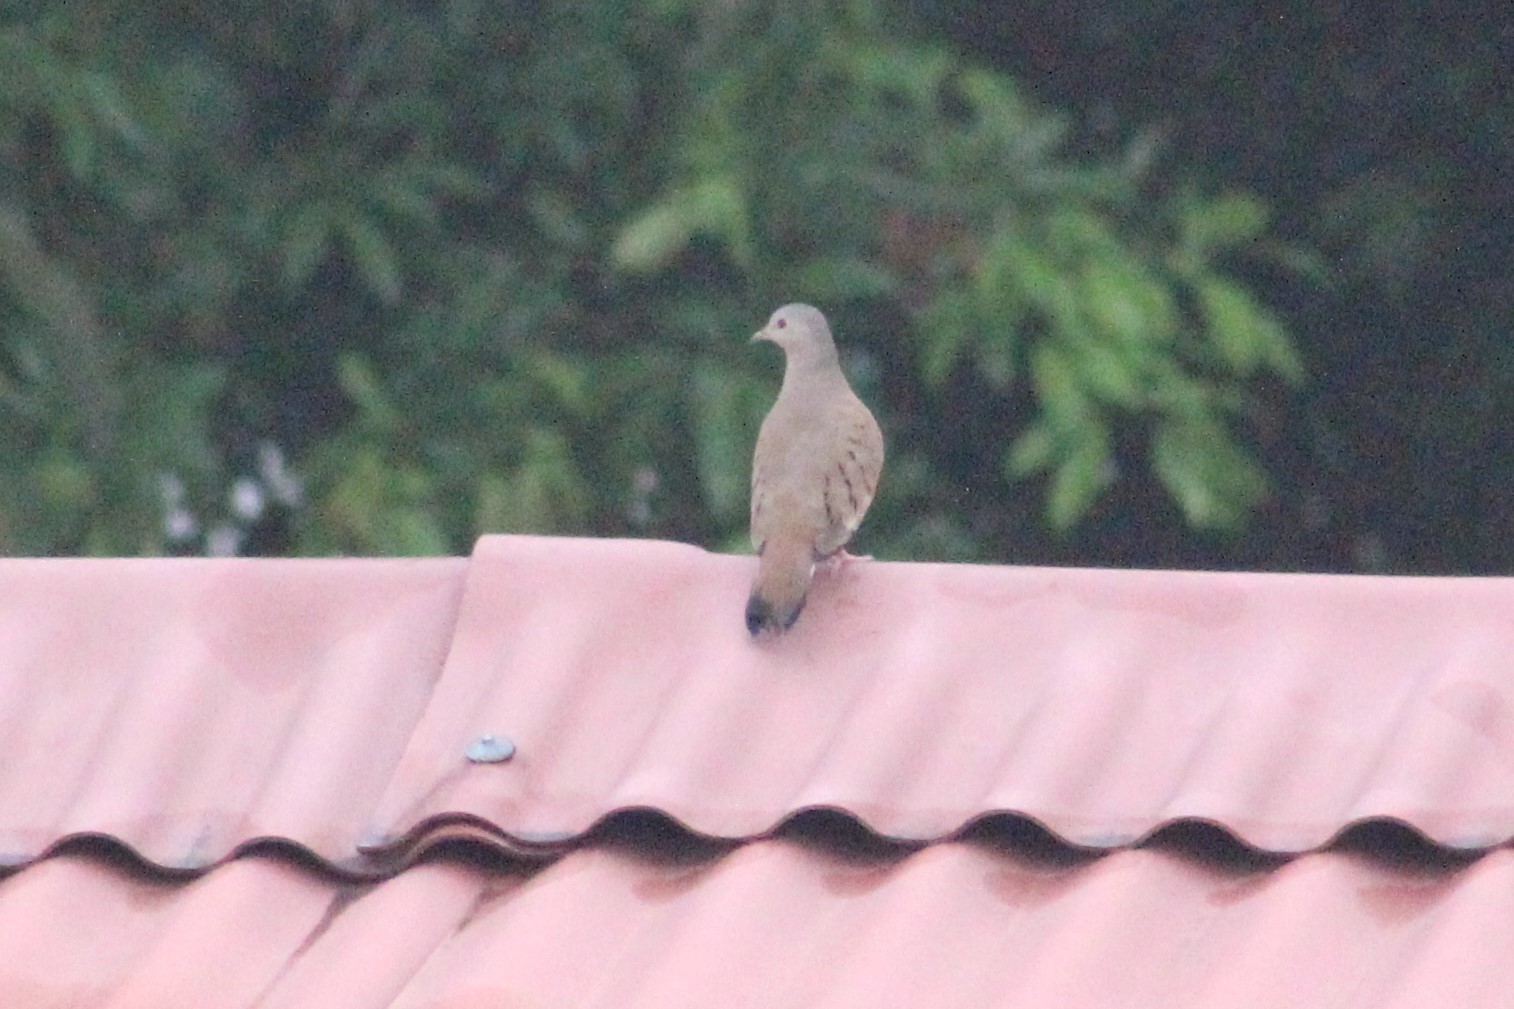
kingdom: Animalia
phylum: Chordata
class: Aves
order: Columbiformes
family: Columbidae
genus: Columbina
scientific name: Columbina talpacoti
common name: Ruddy ground dove
